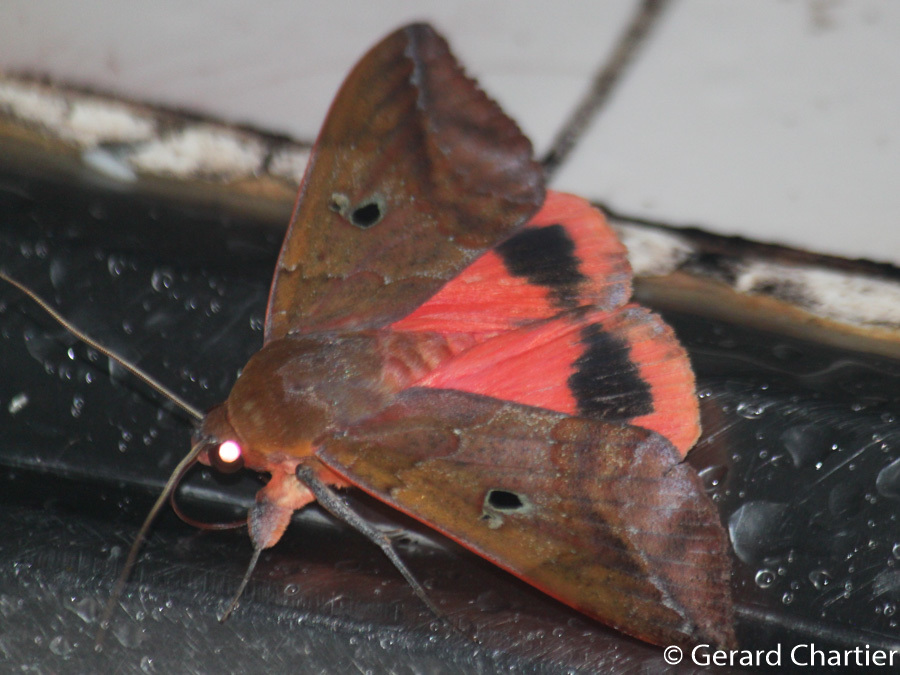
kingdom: Animalia
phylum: Arthropoda
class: Insecta
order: Lepidoptera
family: Erebidae
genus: Thyas
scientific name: Thyas honesta
